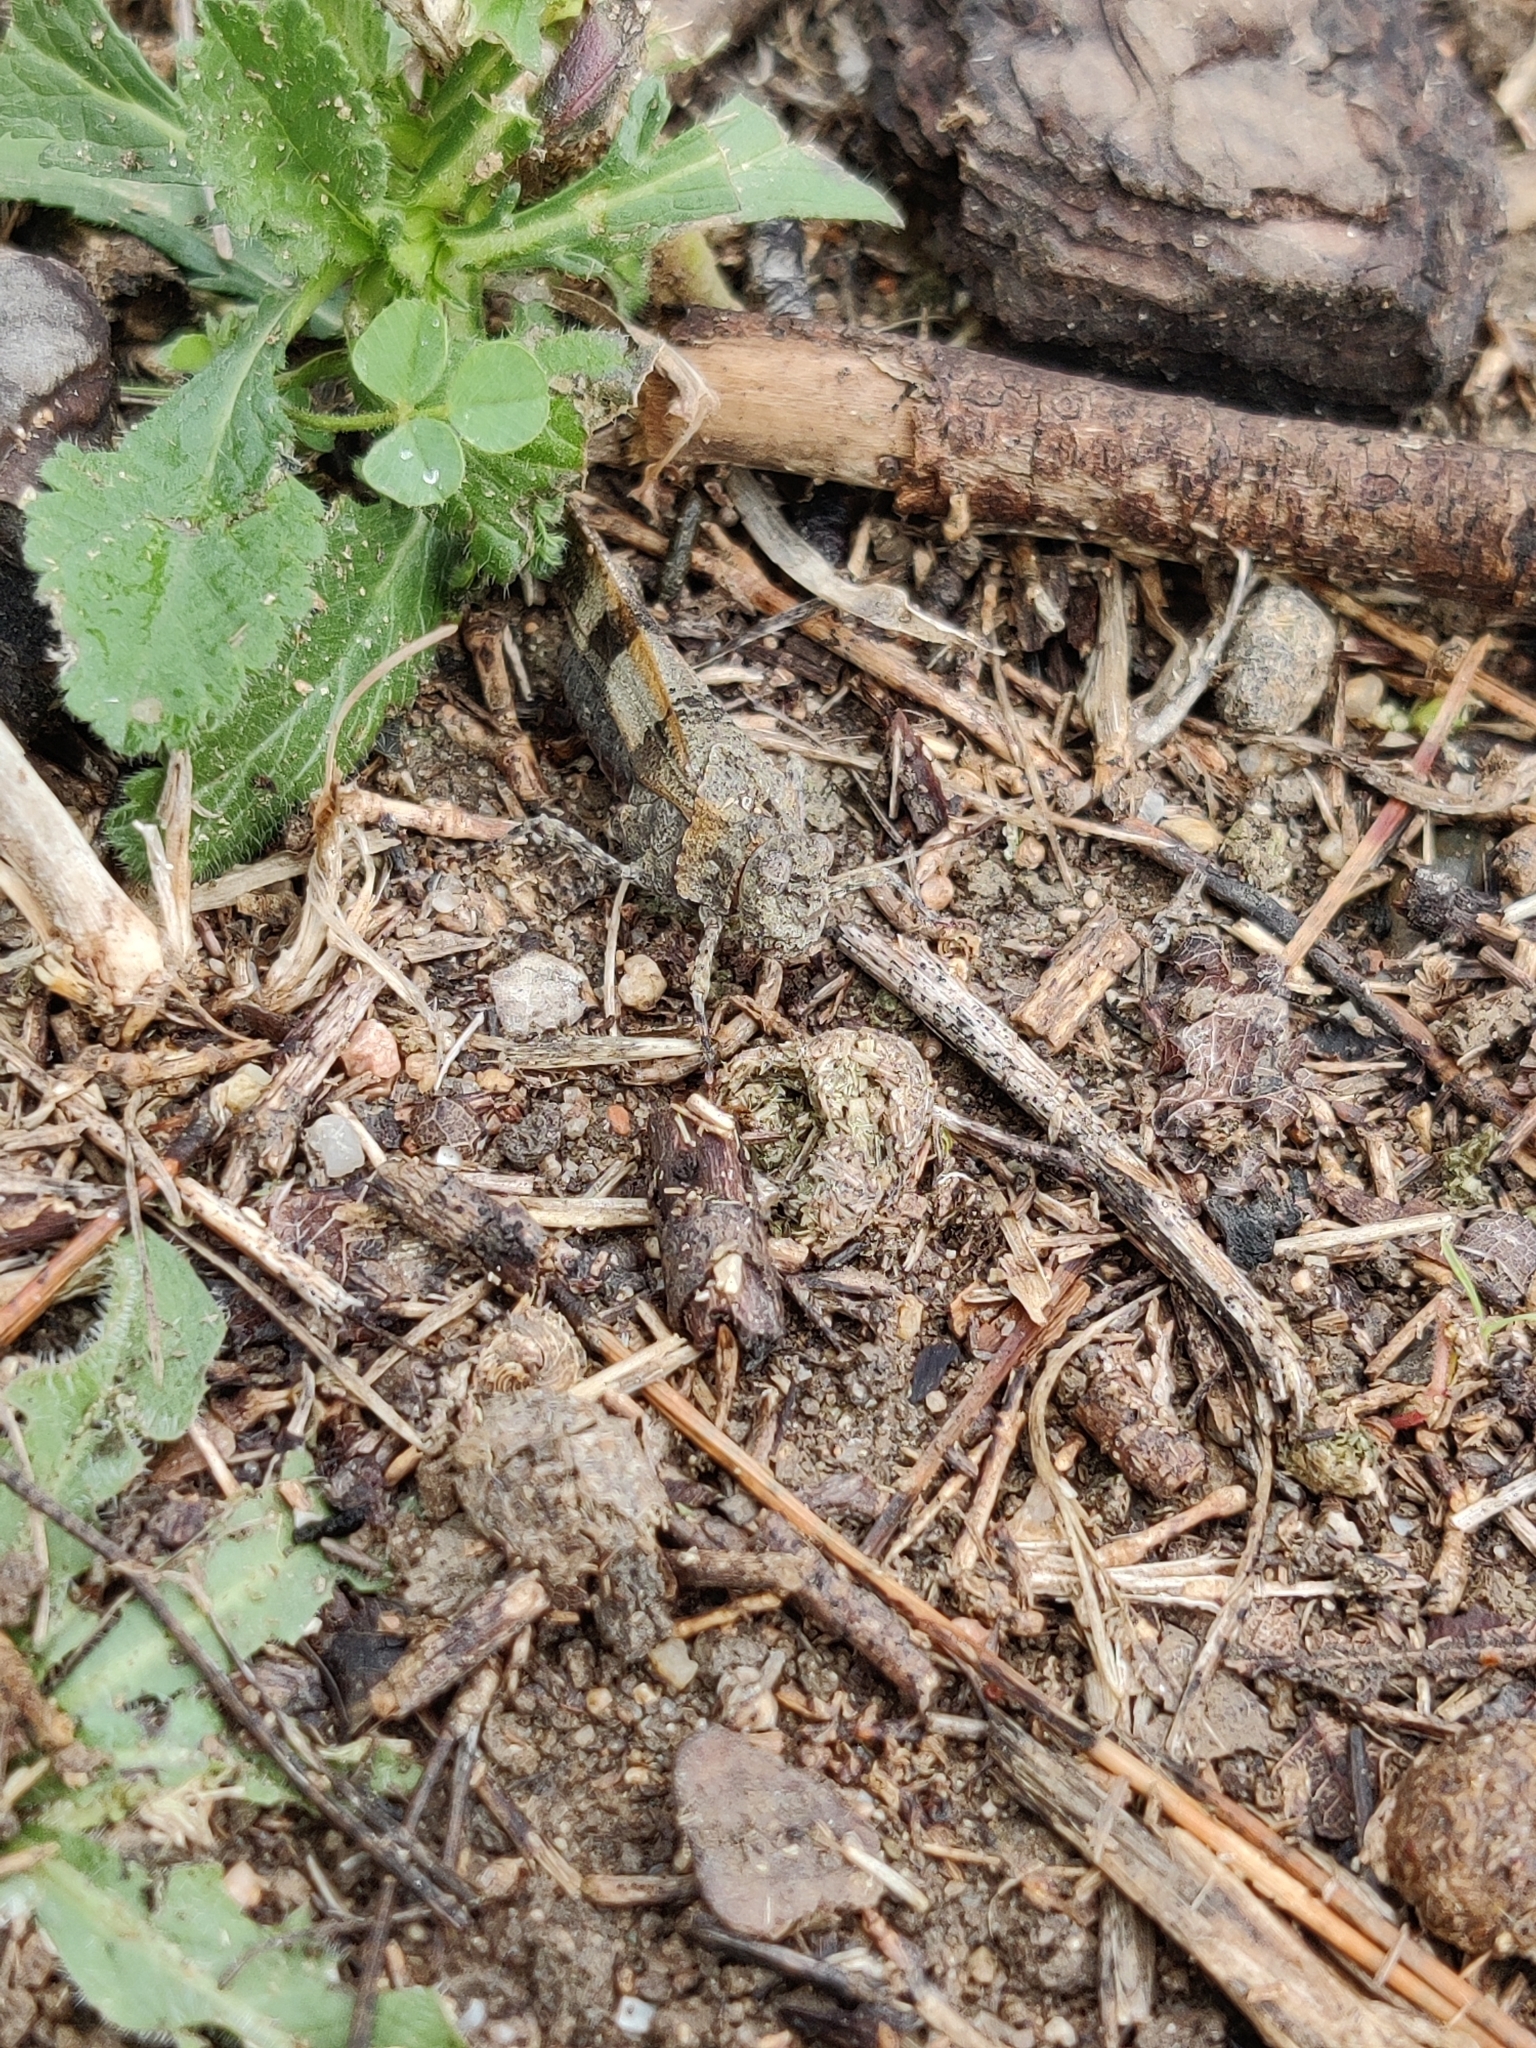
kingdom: Animalia
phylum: Arthropoda
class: Insecta
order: Orthoptera
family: Acrididae
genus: Oedipoda
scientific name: Oedipoda caerulescens
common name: Blue-winged grasshopper
